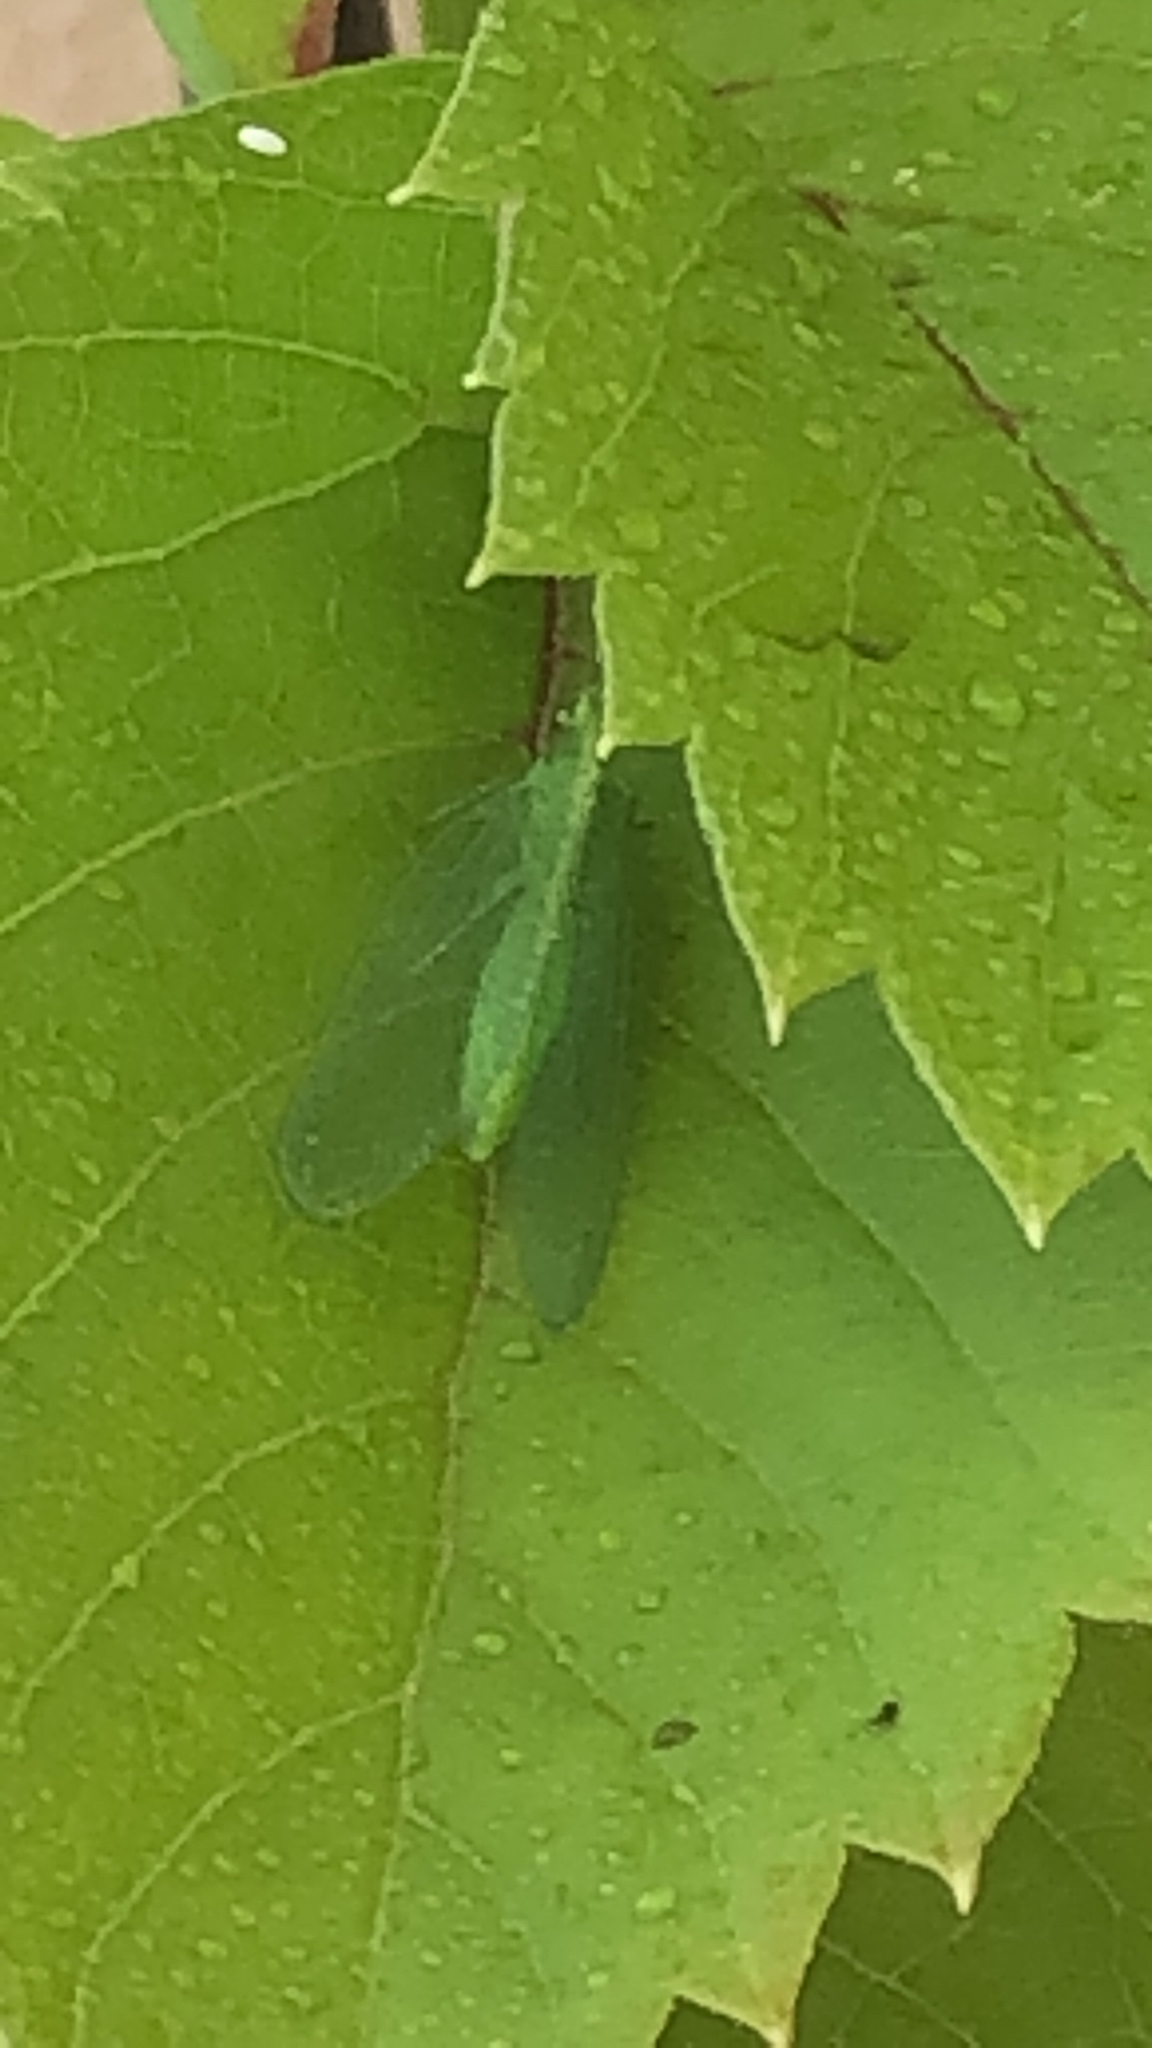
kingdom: Animalia
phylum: Arthropoda
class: Insecta
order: Neuroptera
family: Chrysopidae
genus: Chrysoperla
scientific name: Chrysoperla
